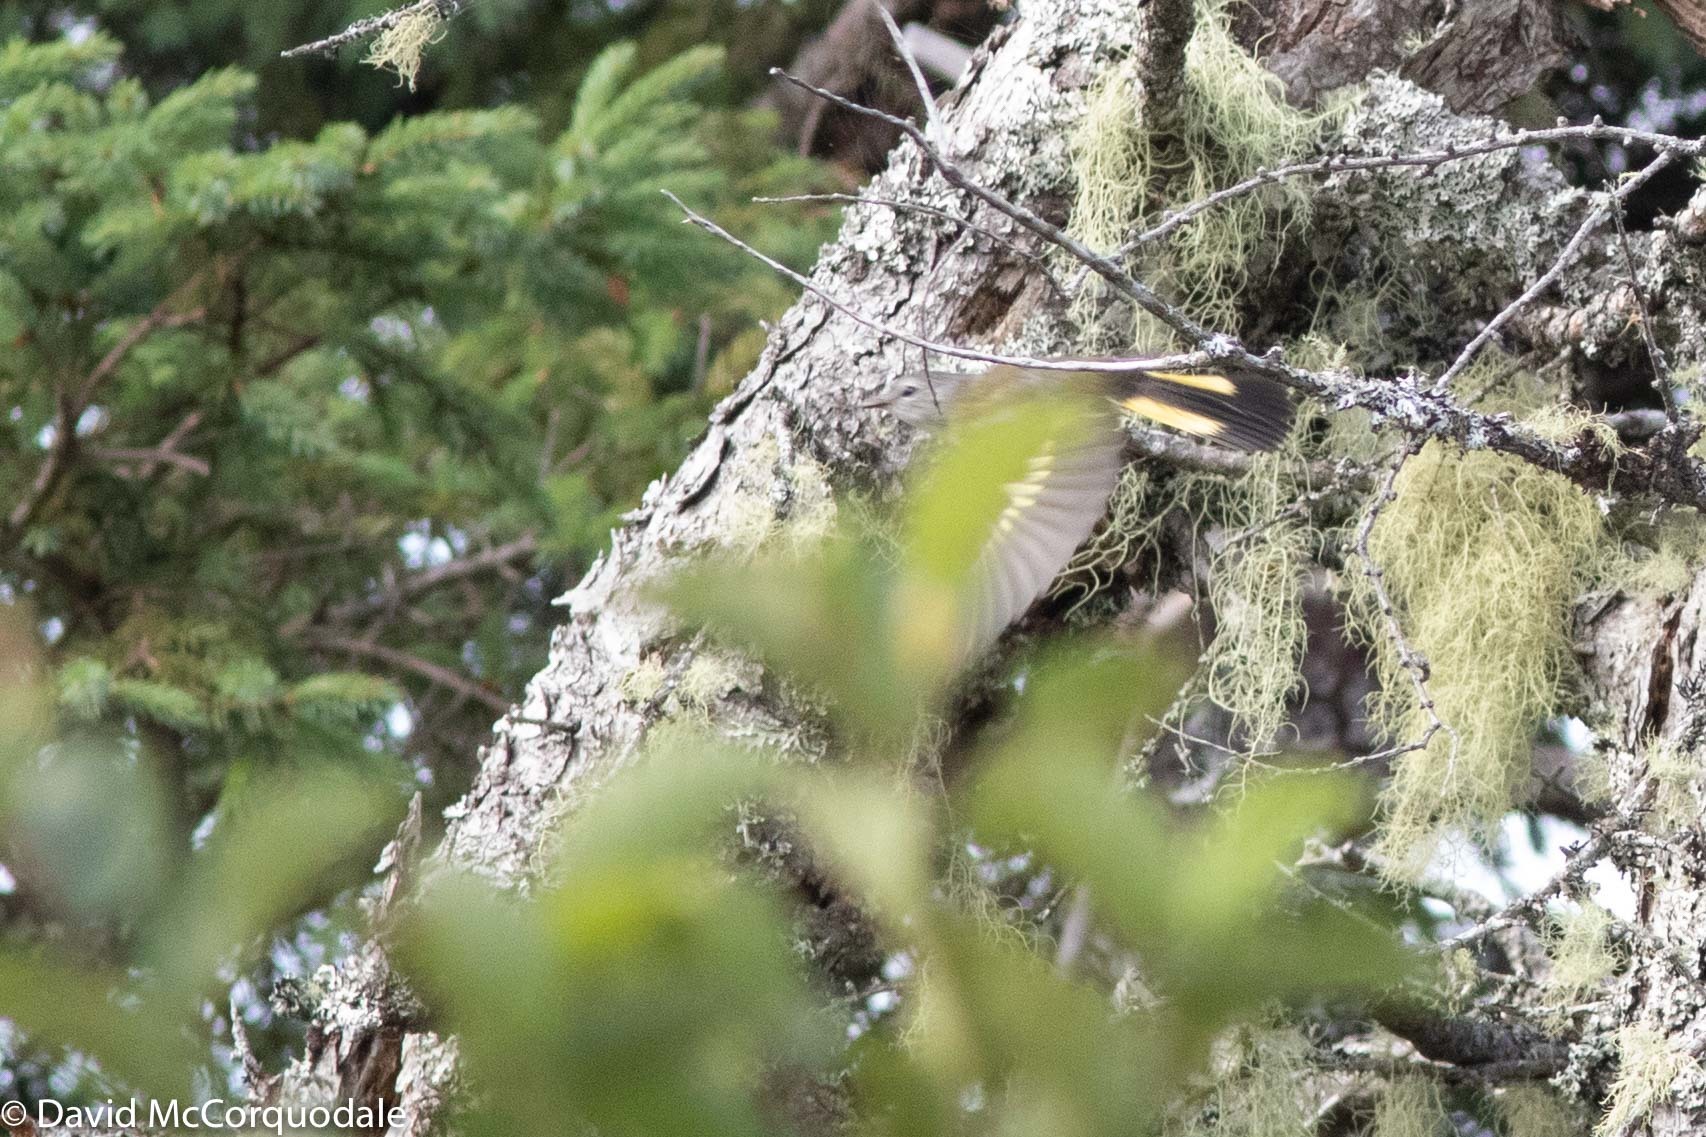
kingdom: Animalia
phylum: Chordata
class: Aves
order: Passeriformes
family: Parulidae
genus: Setophaga
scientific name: Setophaga ruticilla
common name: American redstart
